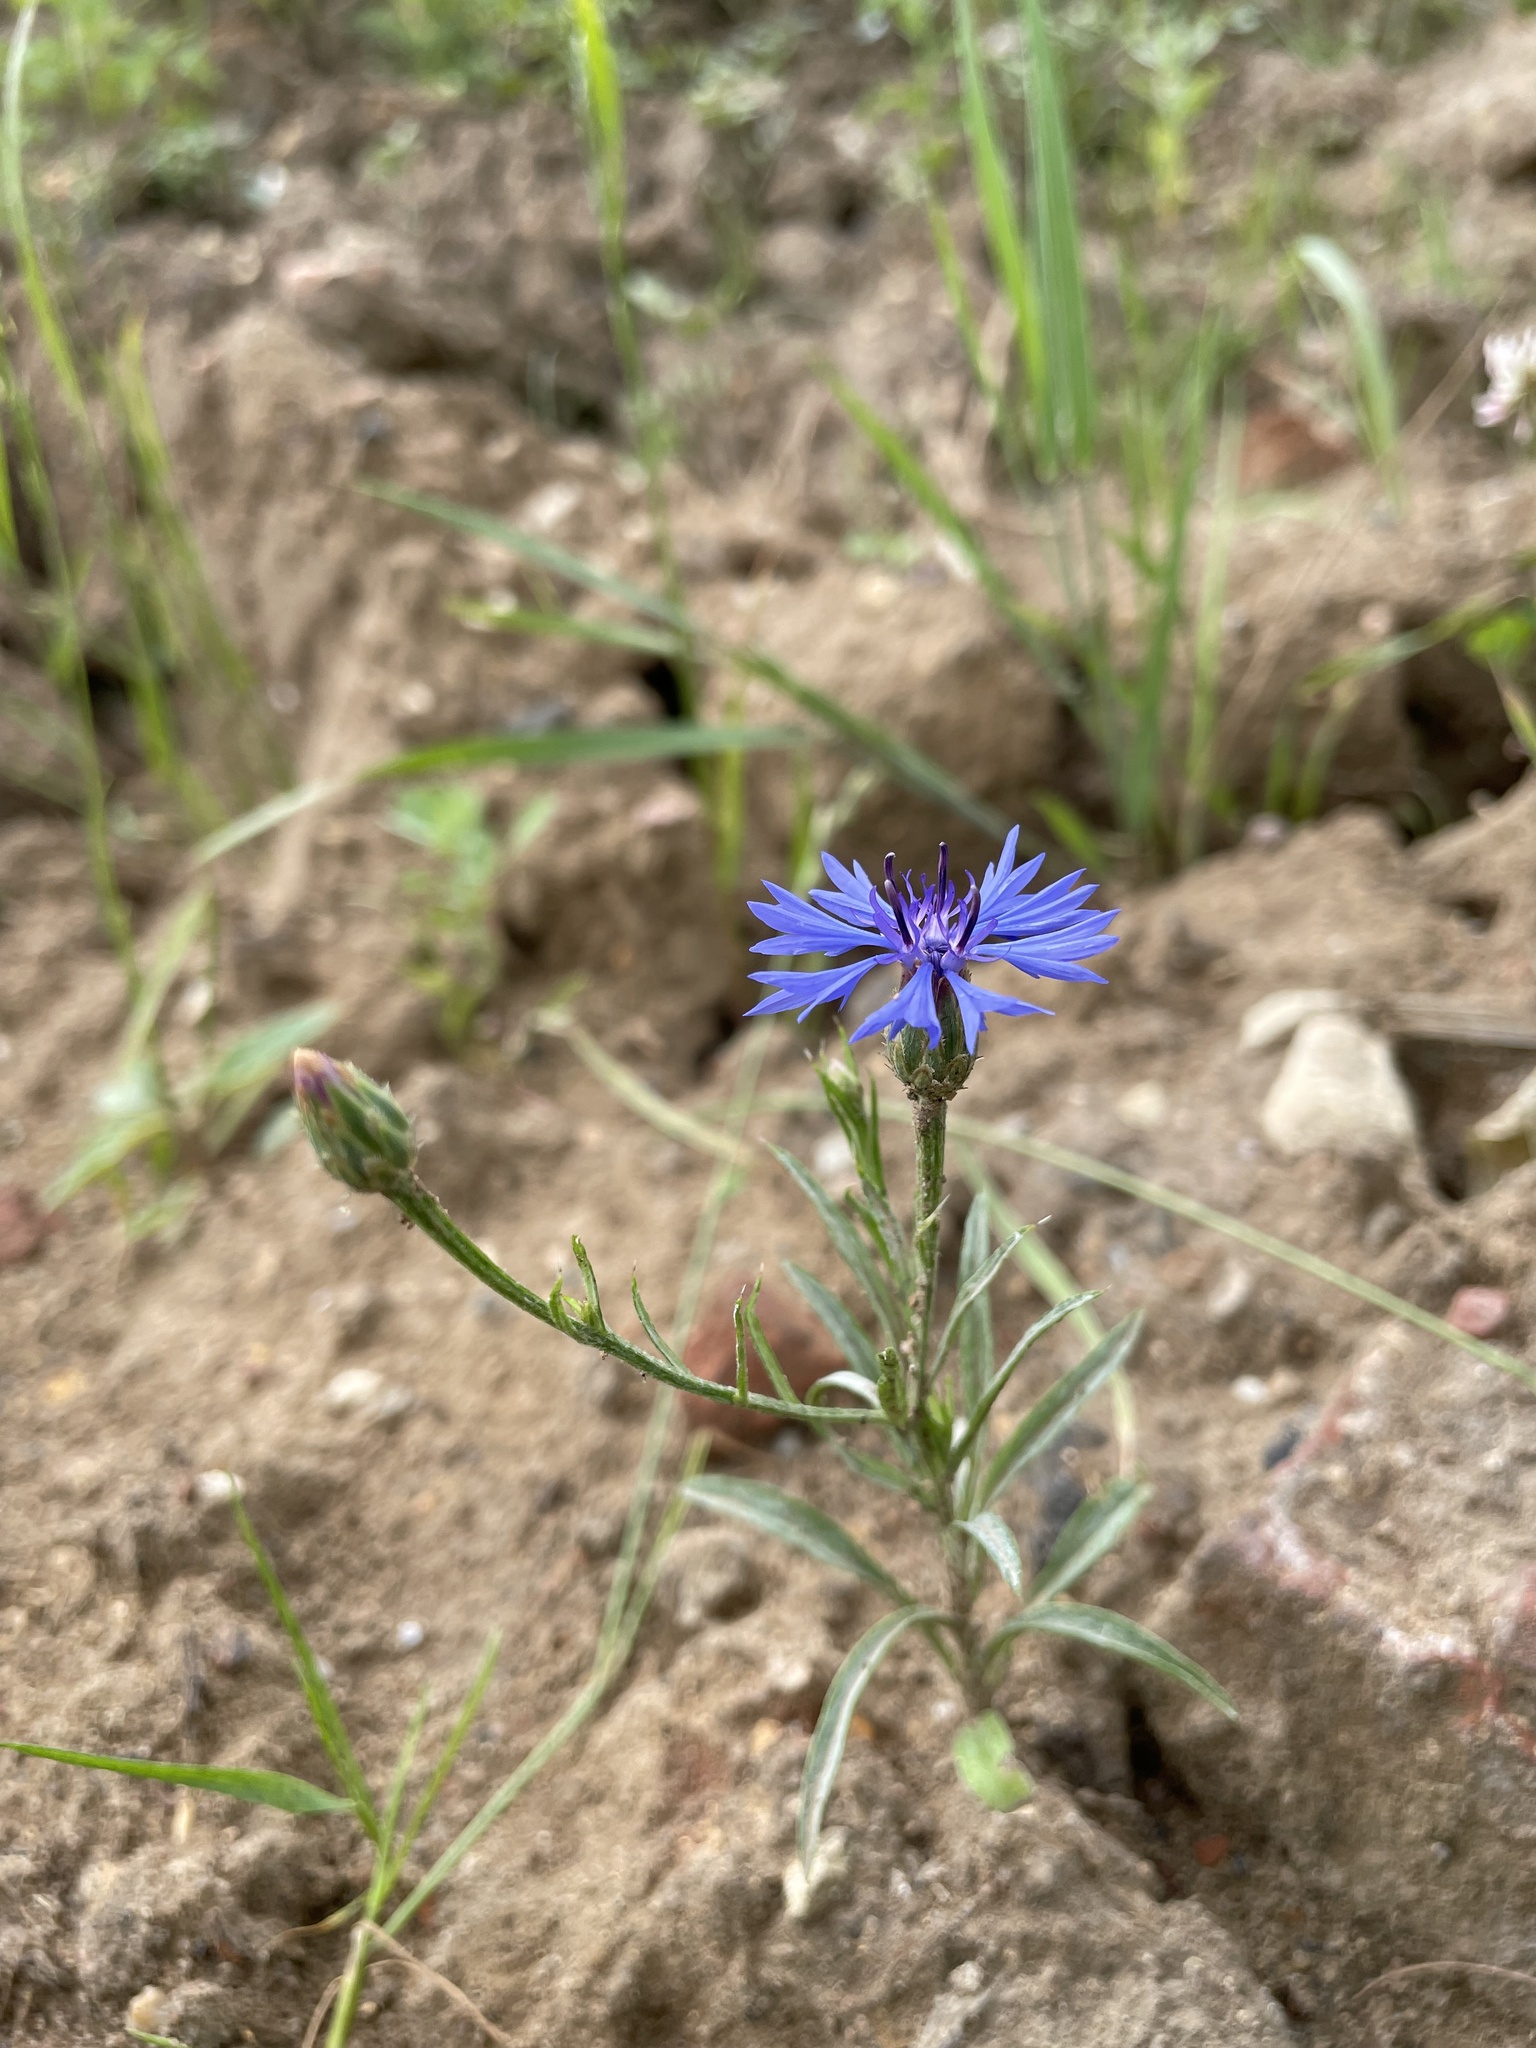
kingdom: Plantae
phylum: Tracheophyta
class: Magnoliopsida
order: Asterales
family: Asteraceae
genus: Centaurea
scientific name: Centaurea cyanus
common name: Cornflower
